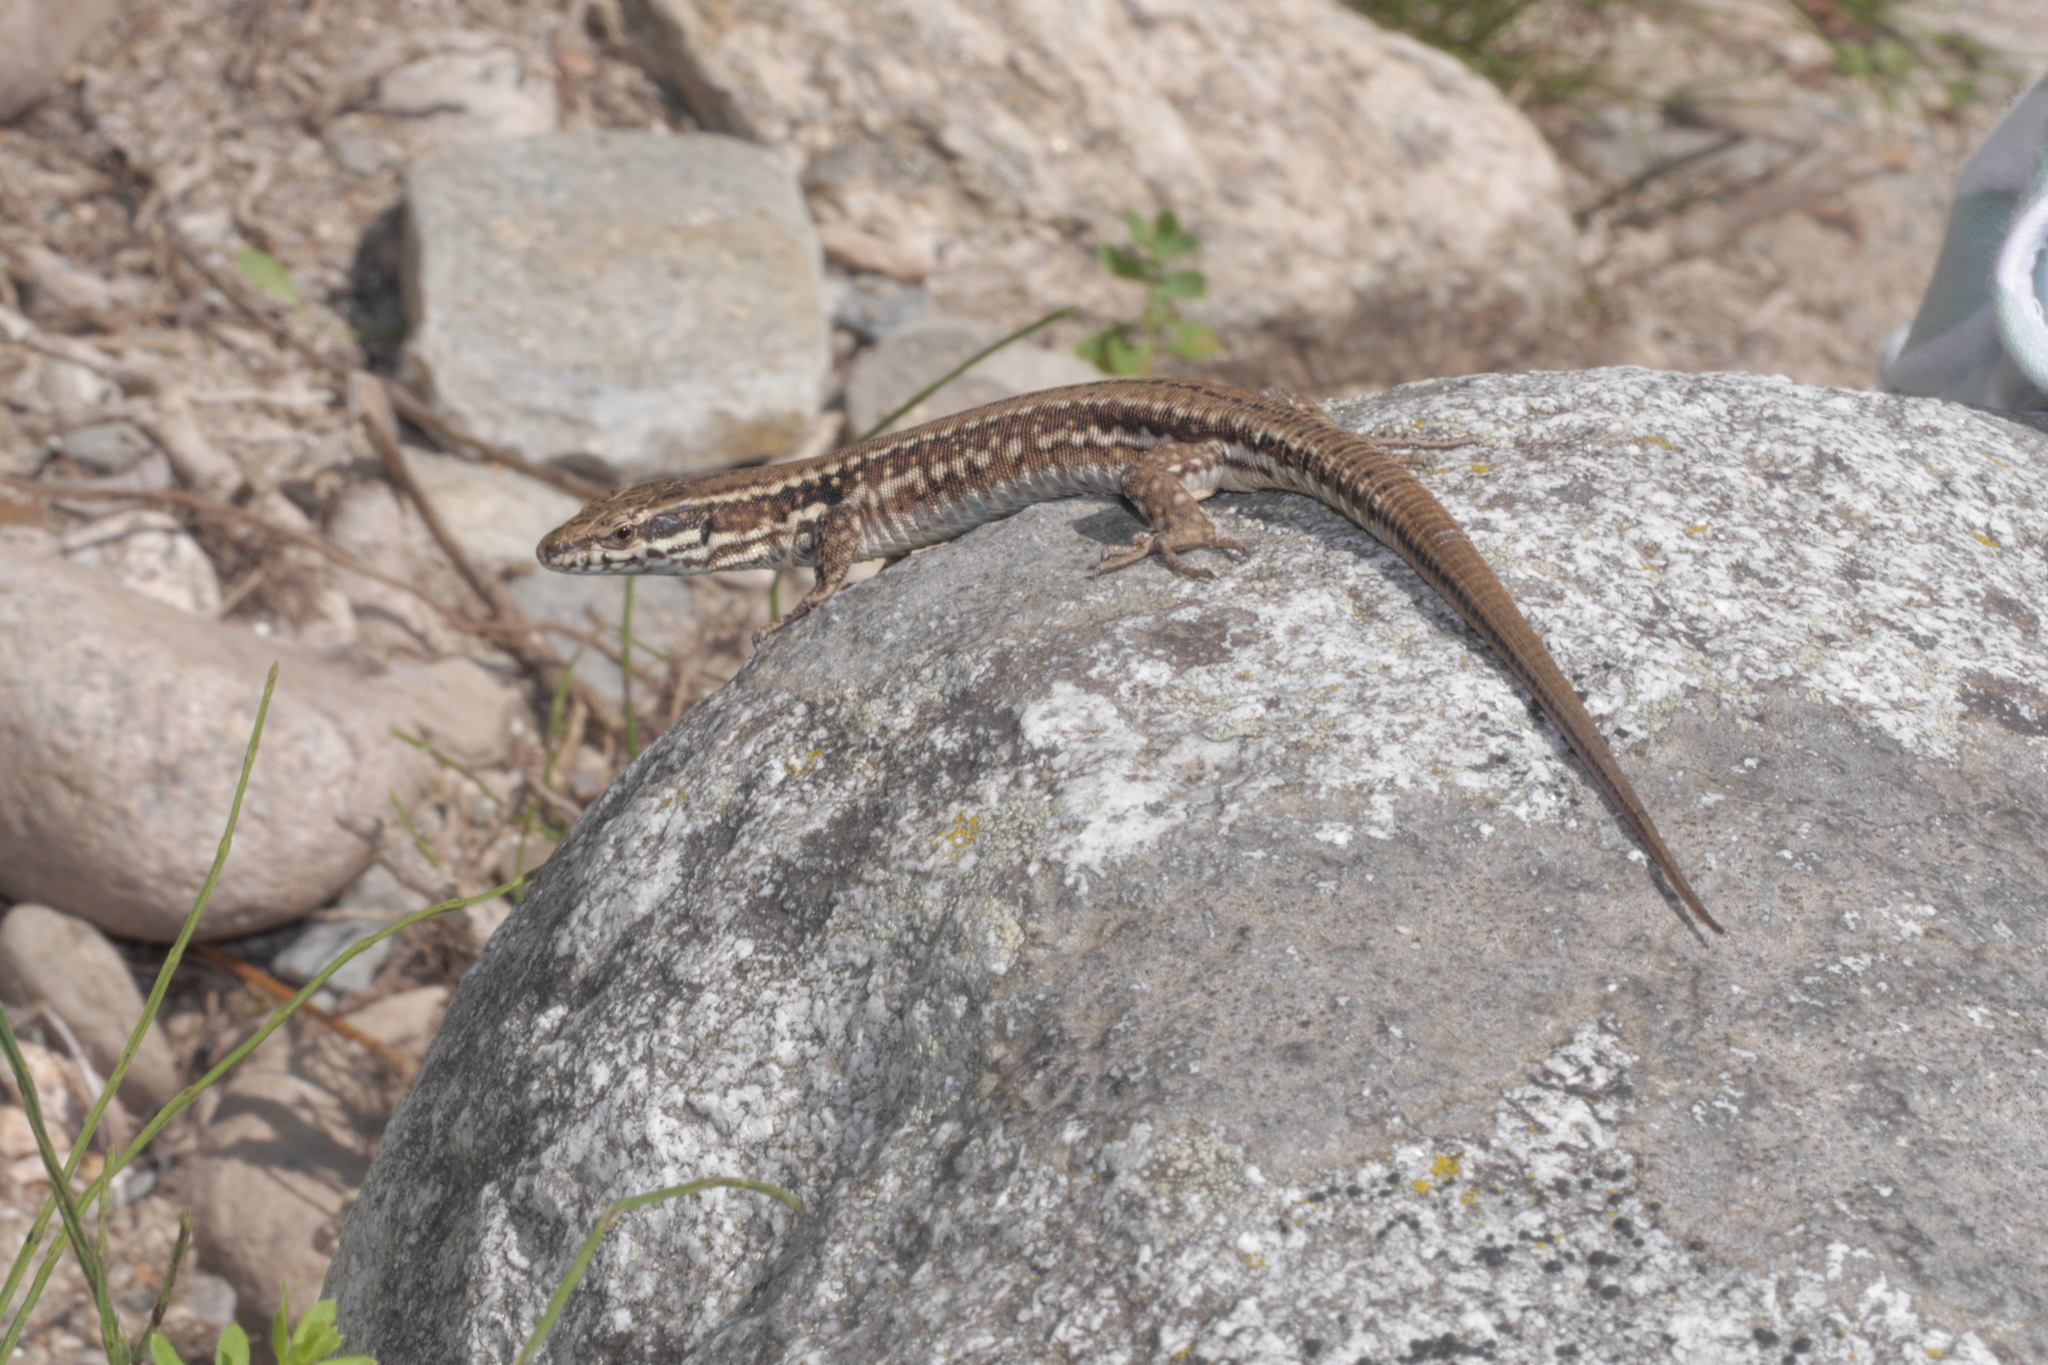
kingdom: Animalia
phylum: Chordata
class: Squamata
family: Lacertidae
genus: Podarcis
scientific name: Podarcis muralis
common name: Common wall lizard
